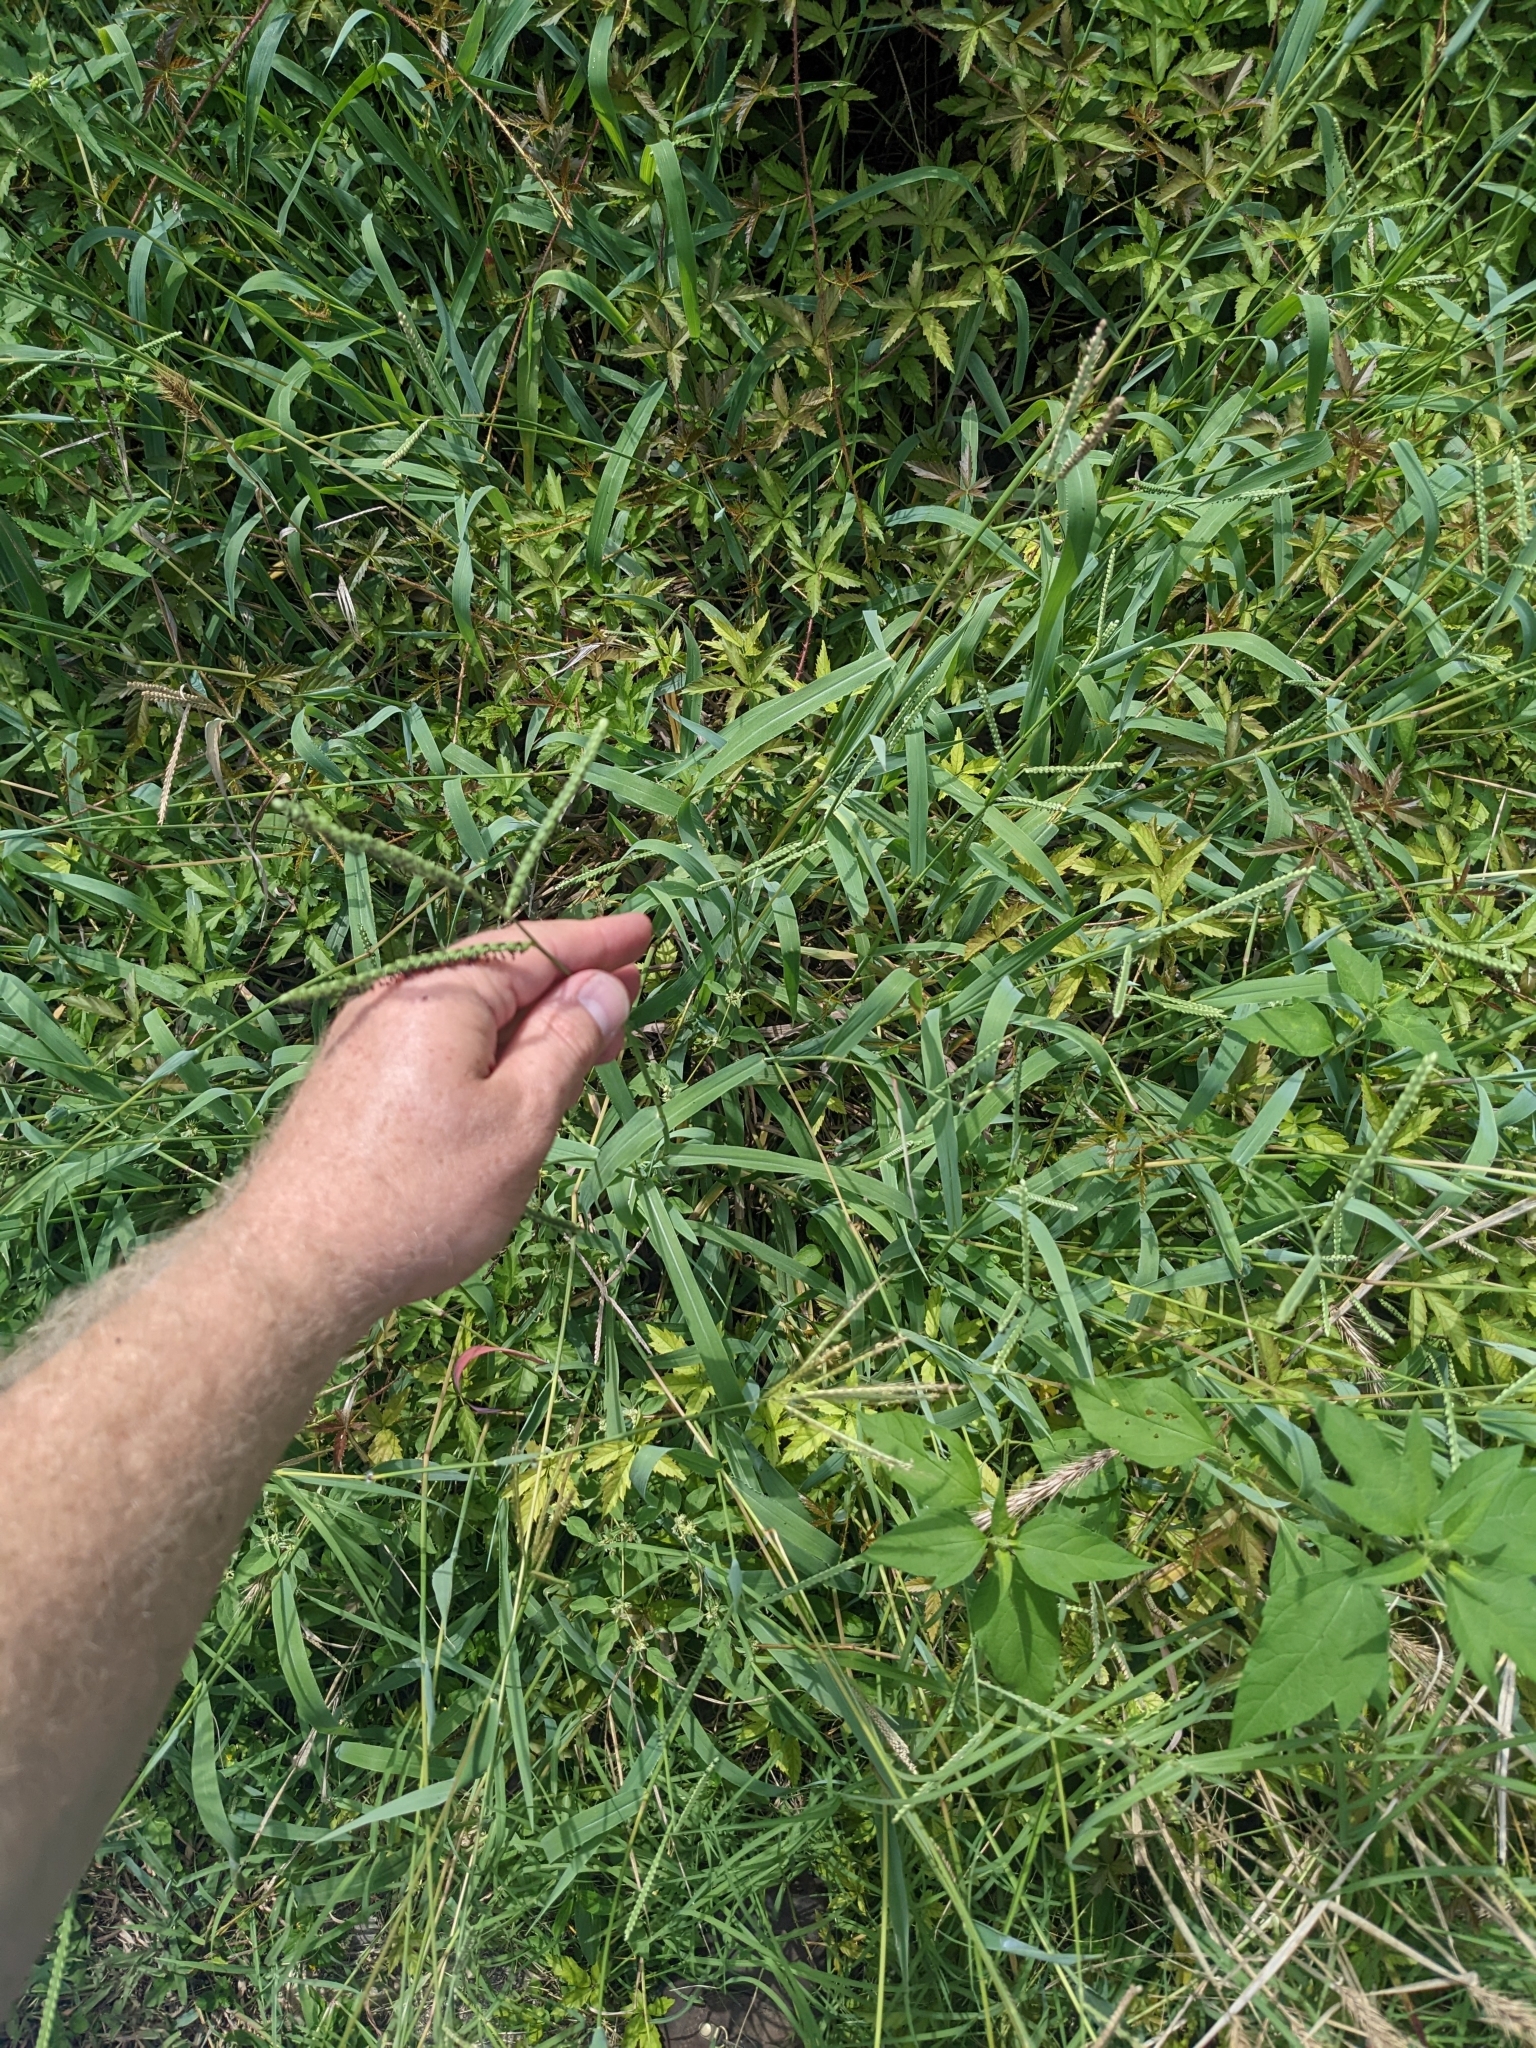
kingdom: Plantae
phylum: Tracheophyta
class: Liliopsida
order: Poales
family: Poaceae
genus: Paspalum
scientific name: Paspalum pubiflorum
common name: Hairy-seed paspalum
